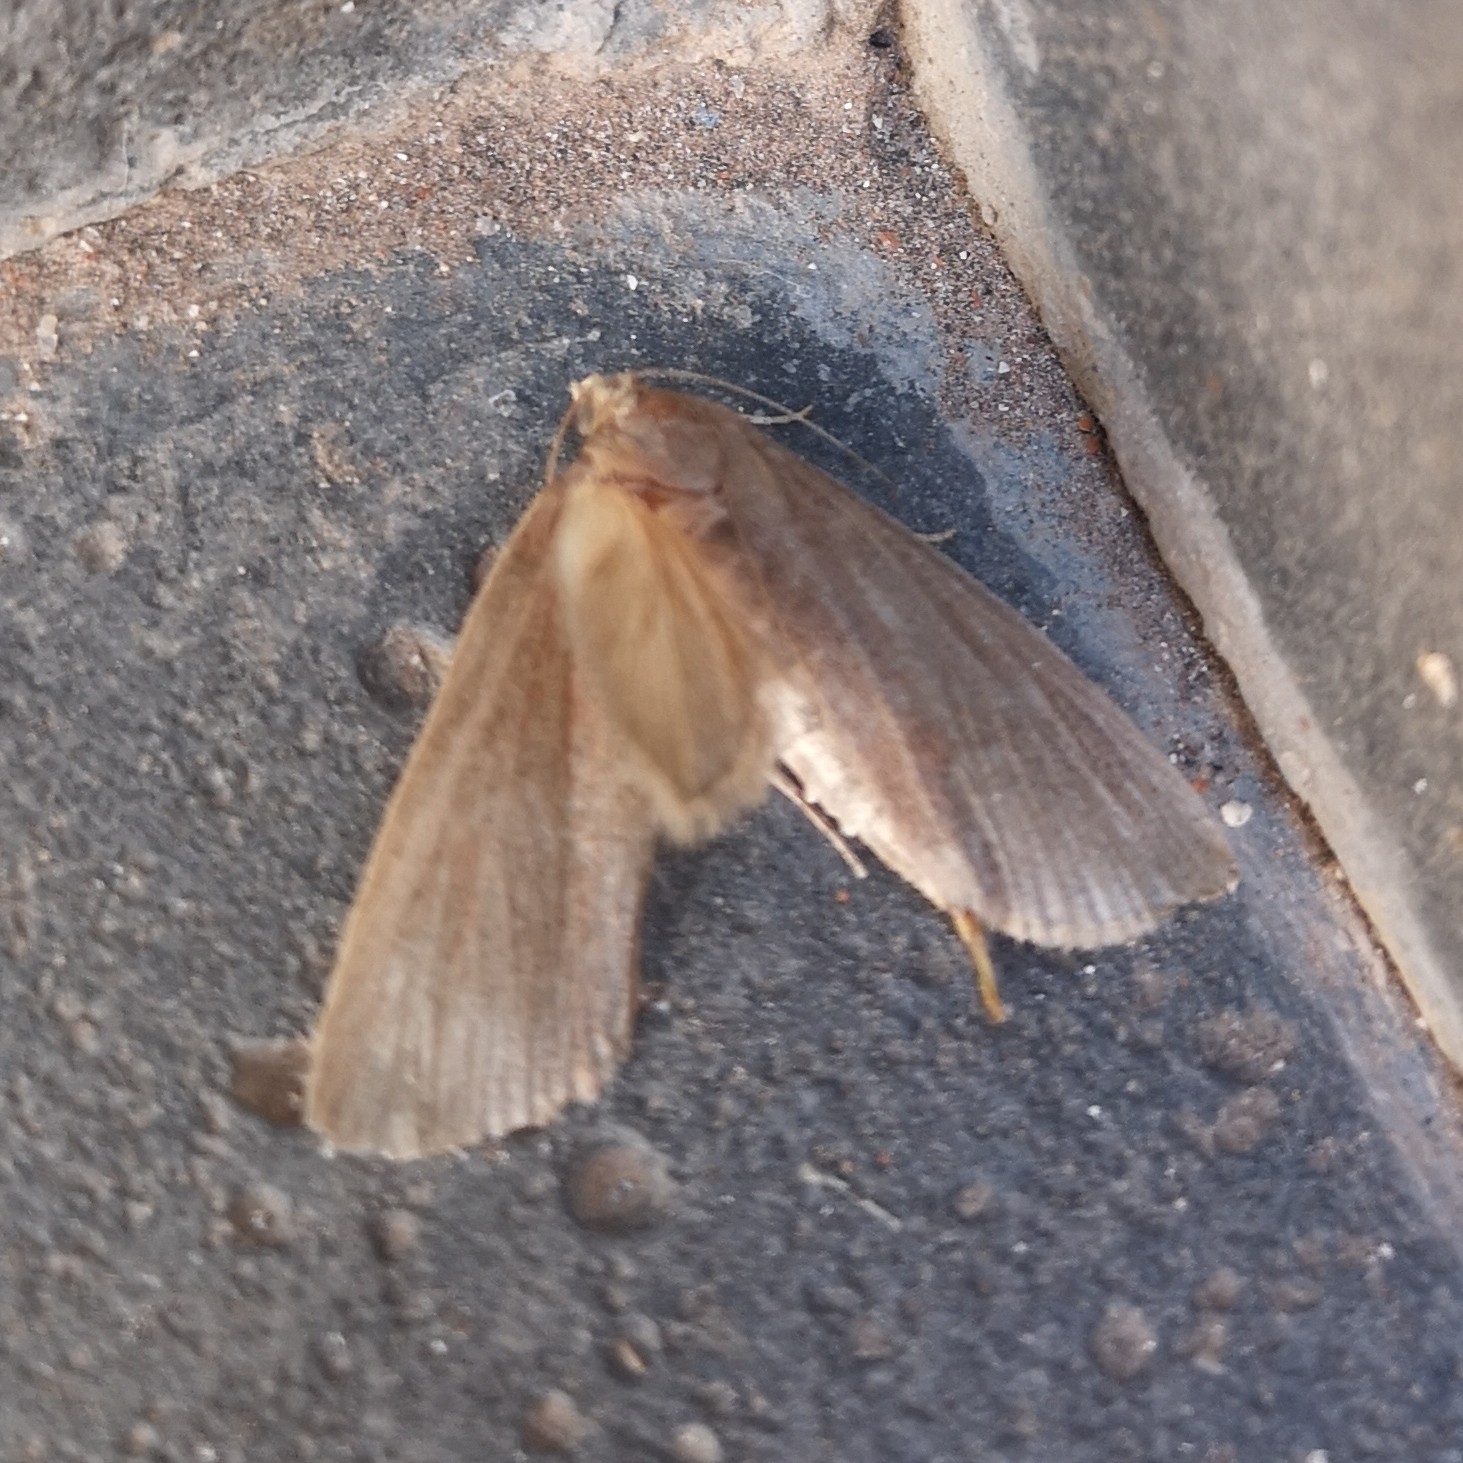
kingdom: Animalia
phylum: Arthropoda
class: Insecta
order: Lepidoptera
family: Pyralidae
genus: Pseudarenipses
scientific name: Pseudarenipses insularum
